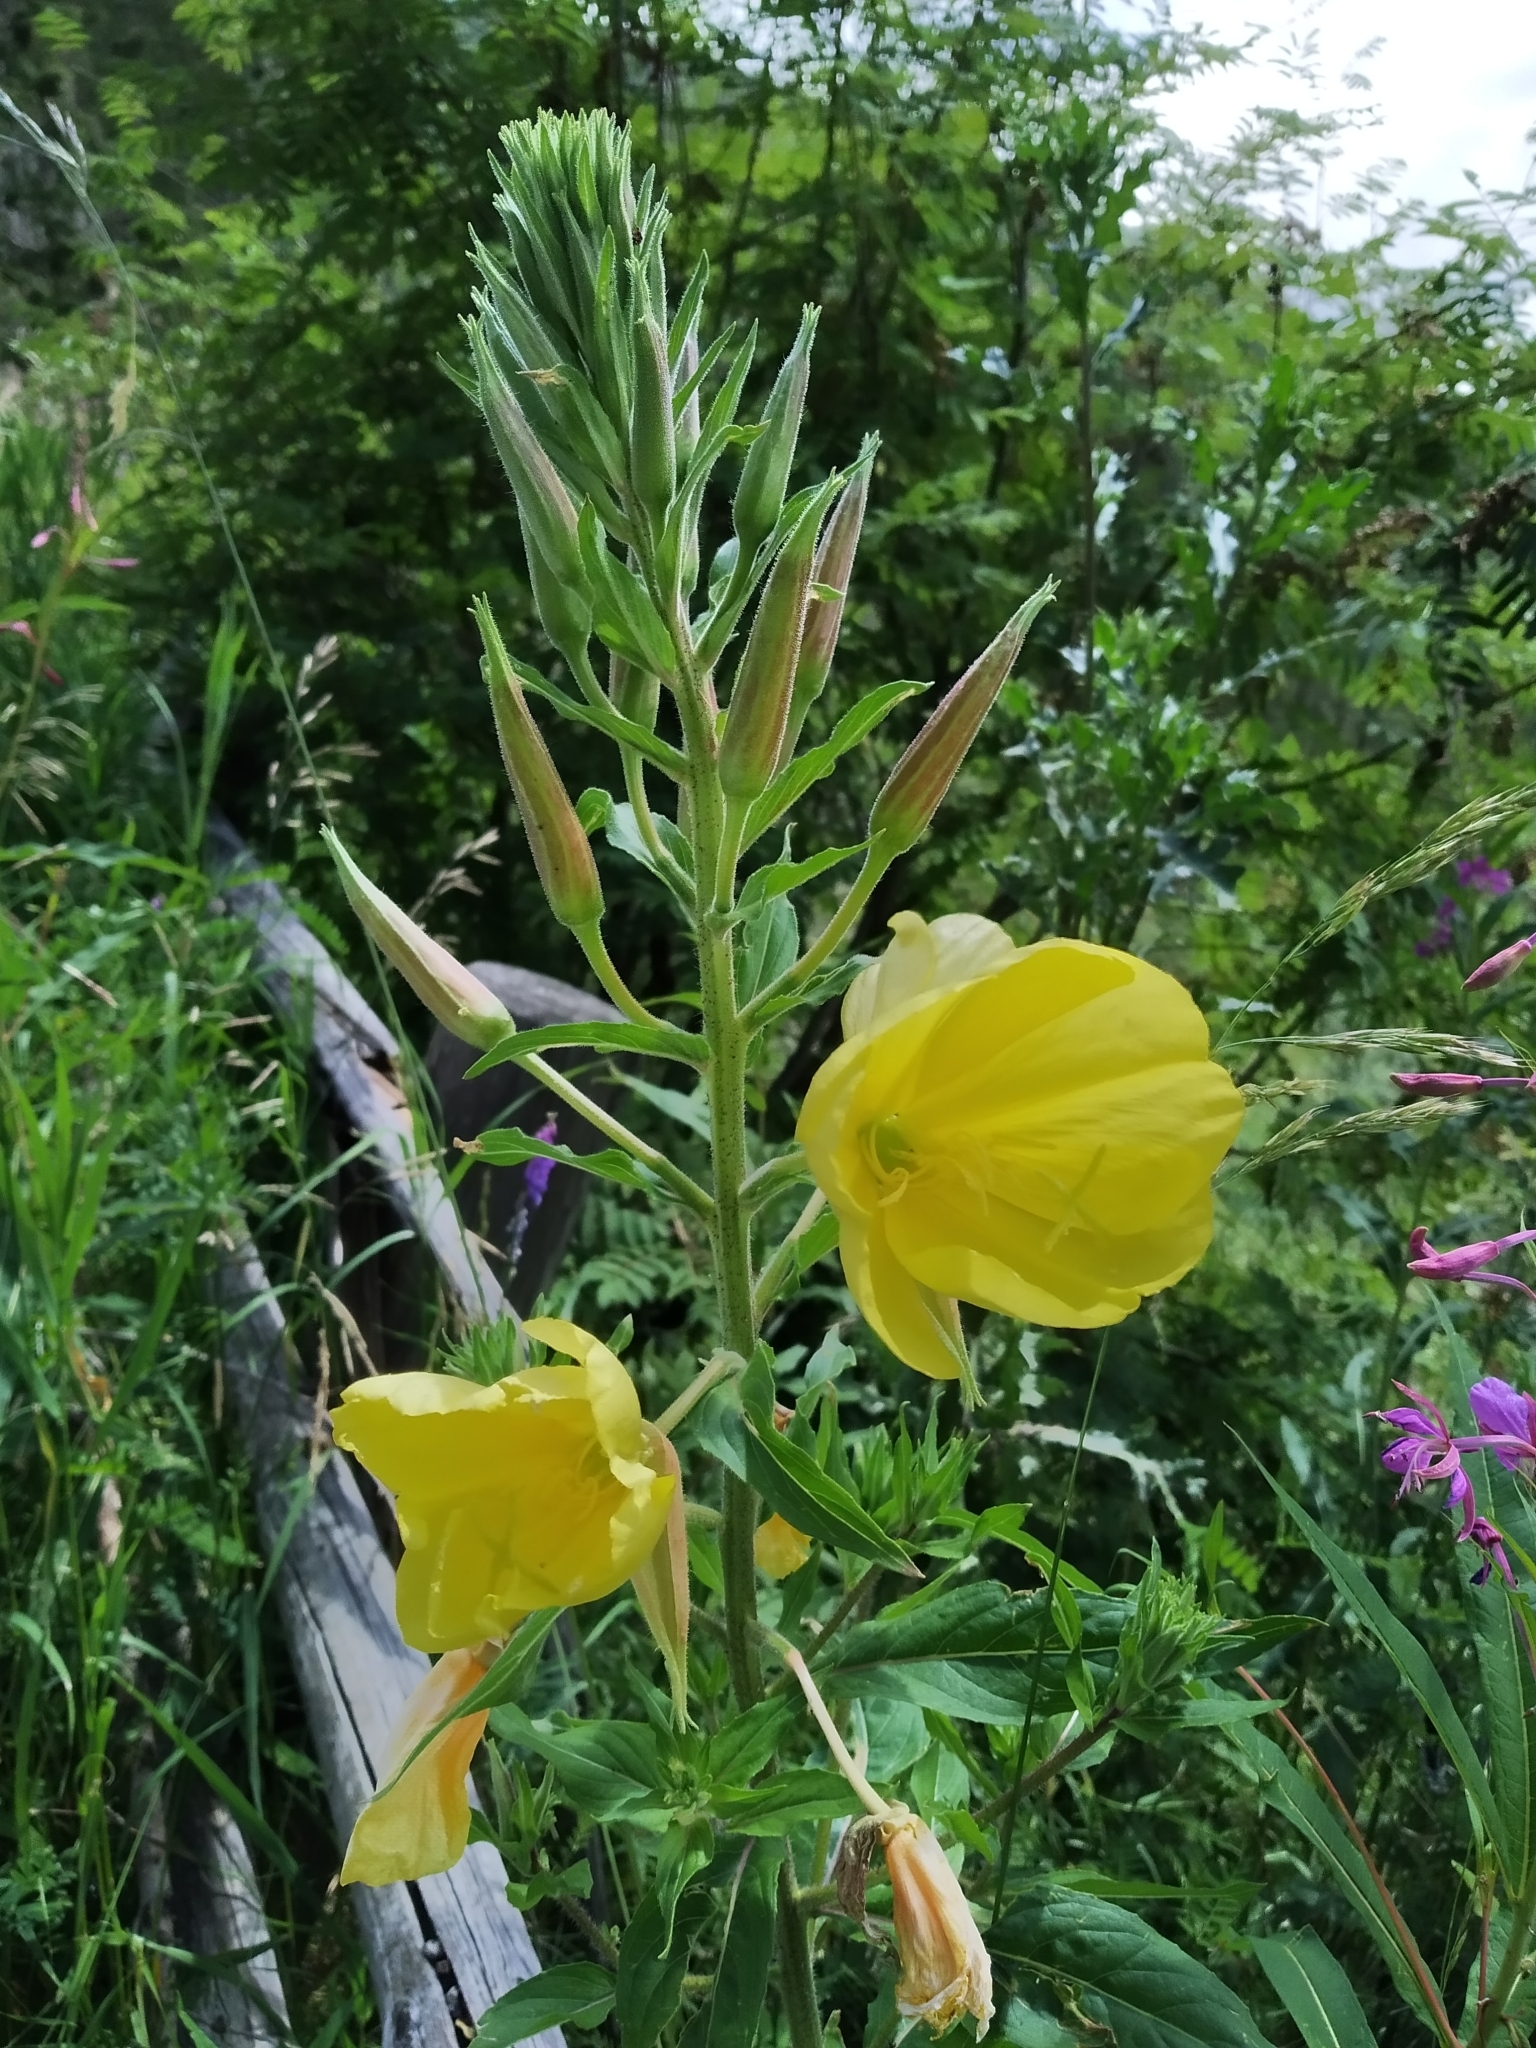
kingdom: Plantae
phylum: Tracheophyta
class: Magnoliopsida
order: Myrtales
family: Onagraceae
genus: Oenothera
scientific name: Oenothera glazioviana
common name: Large-flowered evening-primrose
